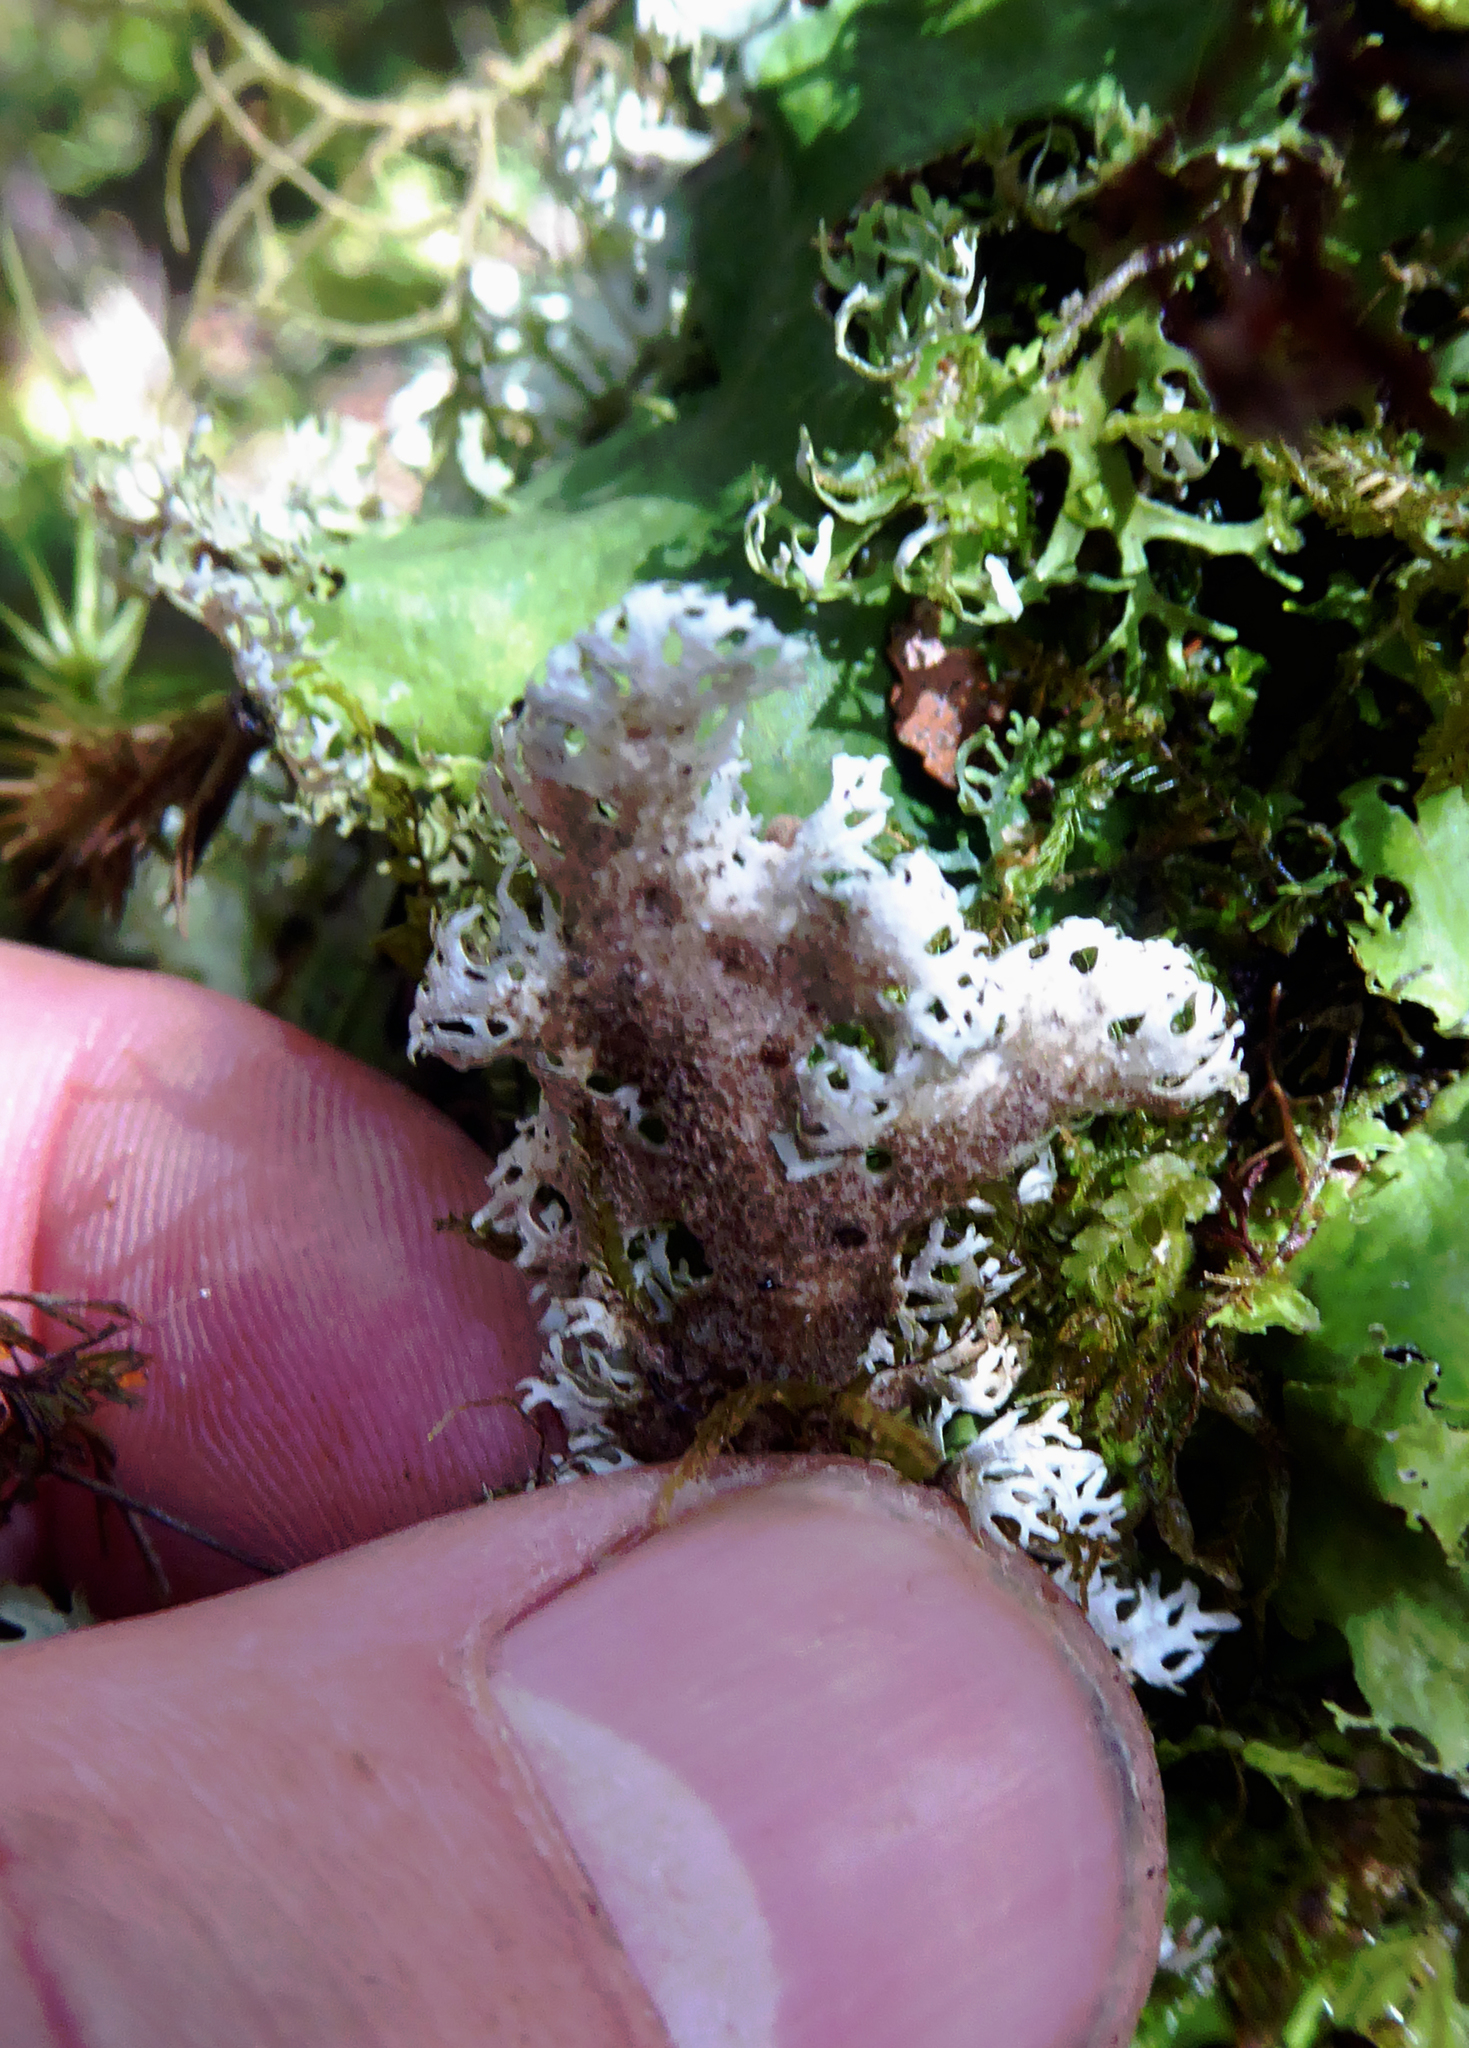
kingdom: Fungi
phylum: Ascomycota
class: Lecanoromycetes
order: Peltigerales
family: Lobariaceae
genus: Pseudocyphellaria
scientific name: Pseudocyphellaria fimbriata
